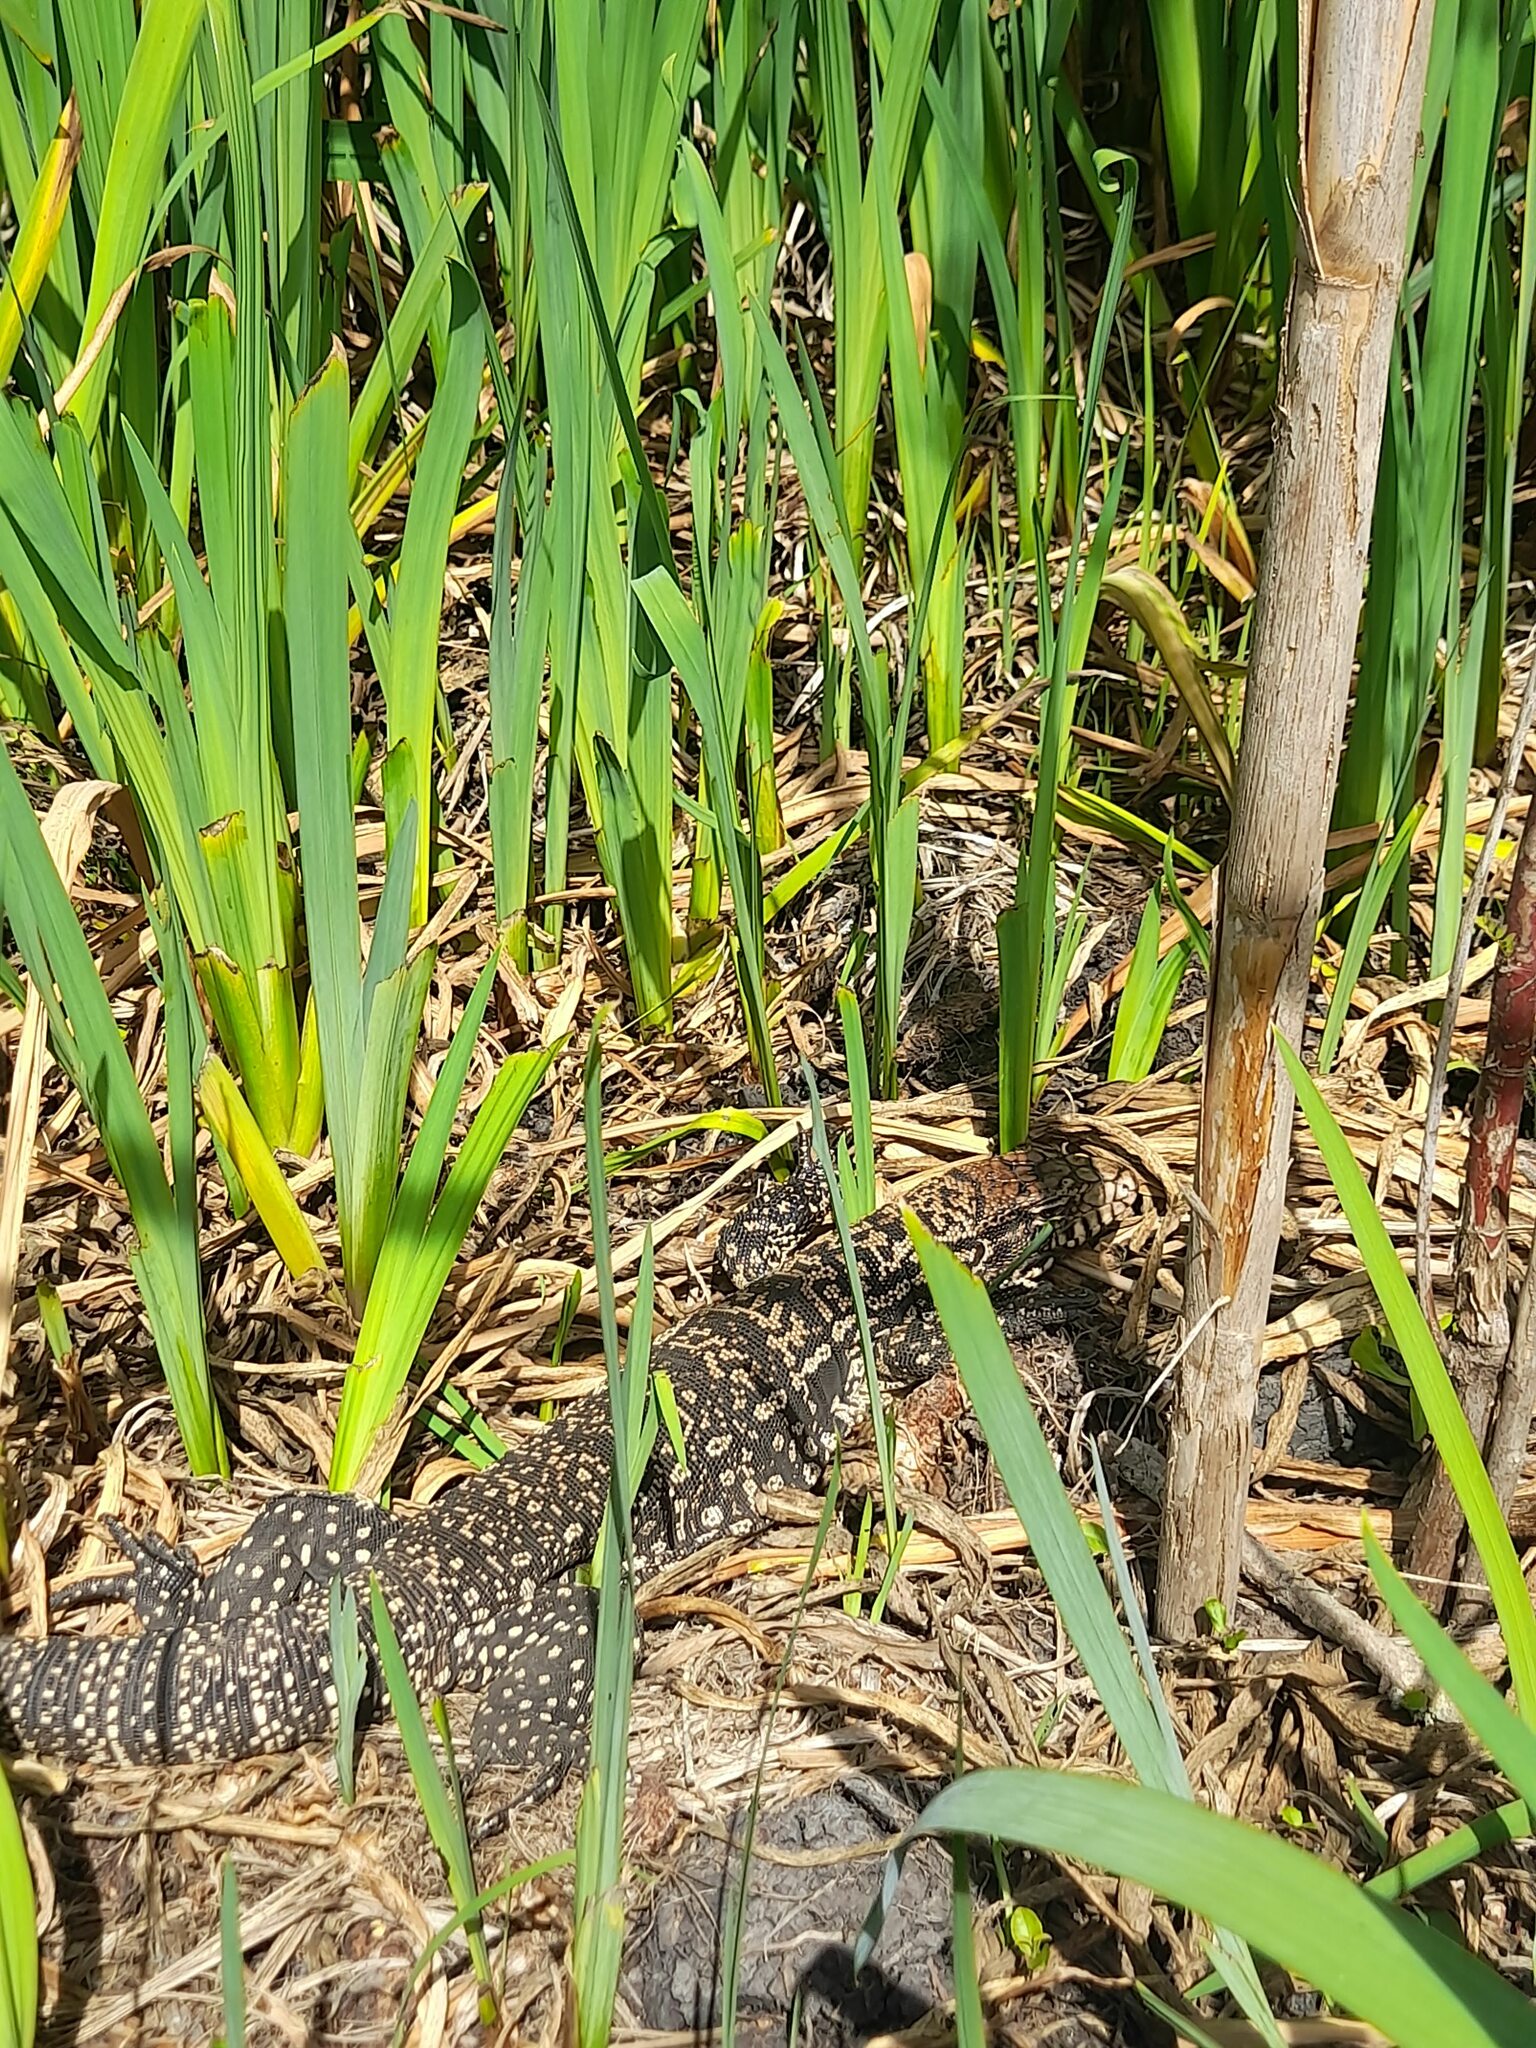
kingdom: Animalia
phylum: Chordata
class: Squamata
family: Teiidae
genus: Salvator
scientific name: Salvator merianae
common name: Argentine black and white tegu
